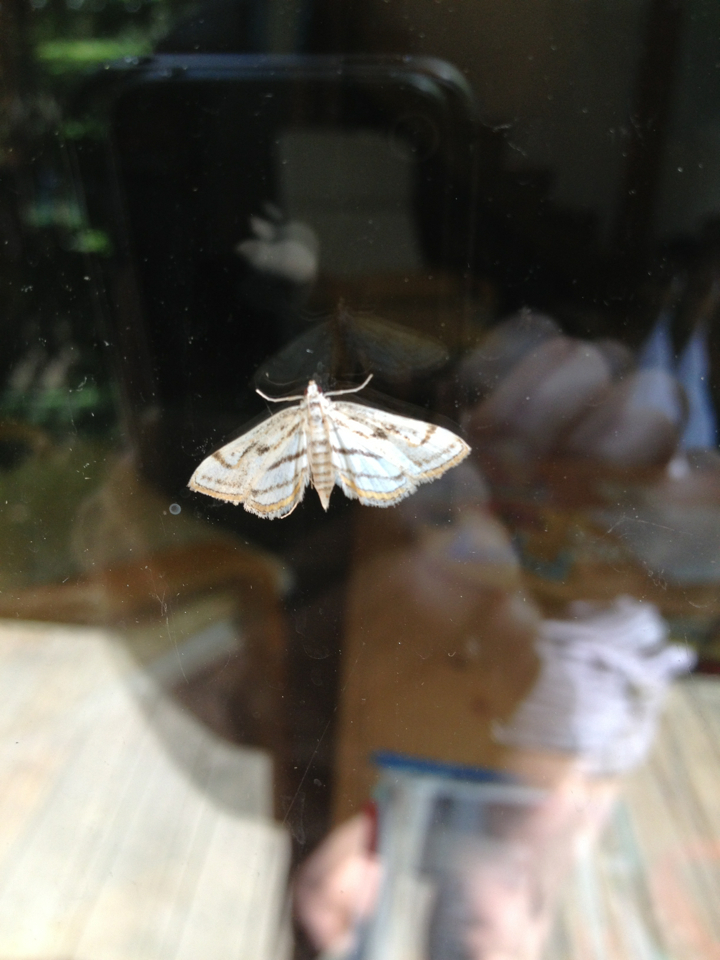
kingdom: Animalia
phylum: Arthropoda
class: Insecta
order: Lepidoptera
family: Crambidae
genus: Parapoynx
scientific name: Parapoynx badiusalis
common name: Chestnut-marked pondweed moth
